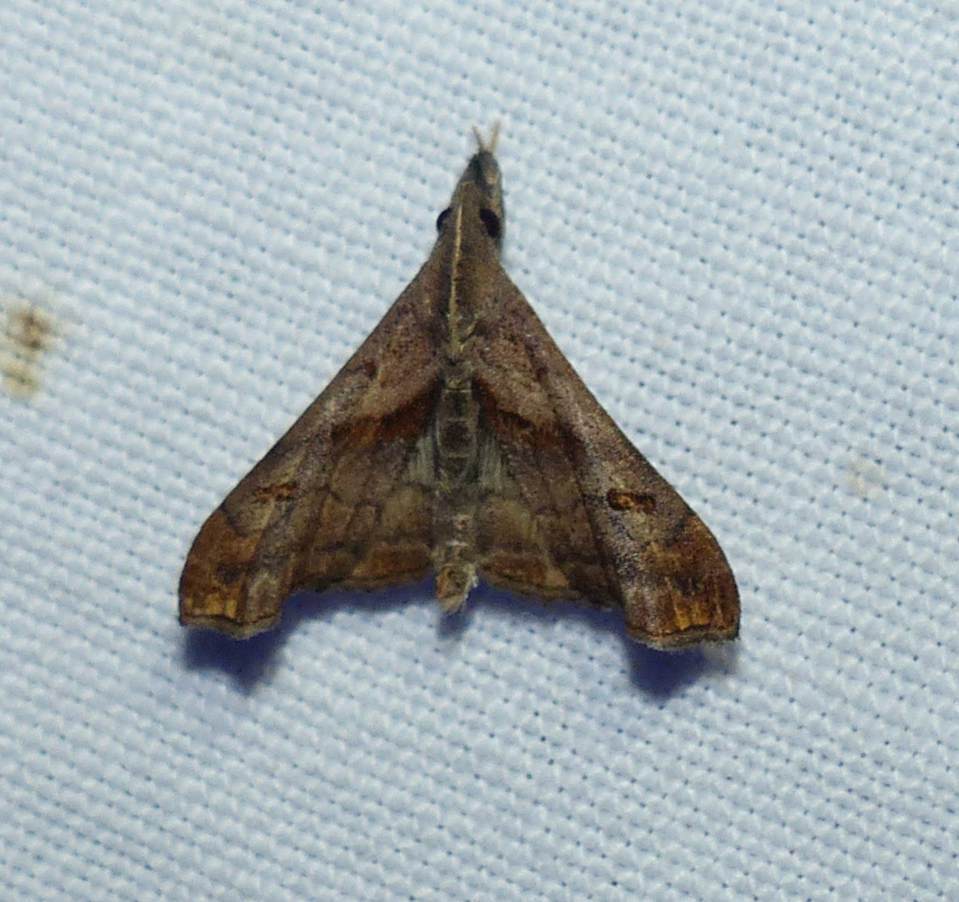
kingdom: Animalia
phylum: Arthropoda
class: Insecta
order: Lepidoptera
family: Erebidae
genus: Palthis
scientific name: Palthis angulalis
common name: Dark-spotted palthis moth
